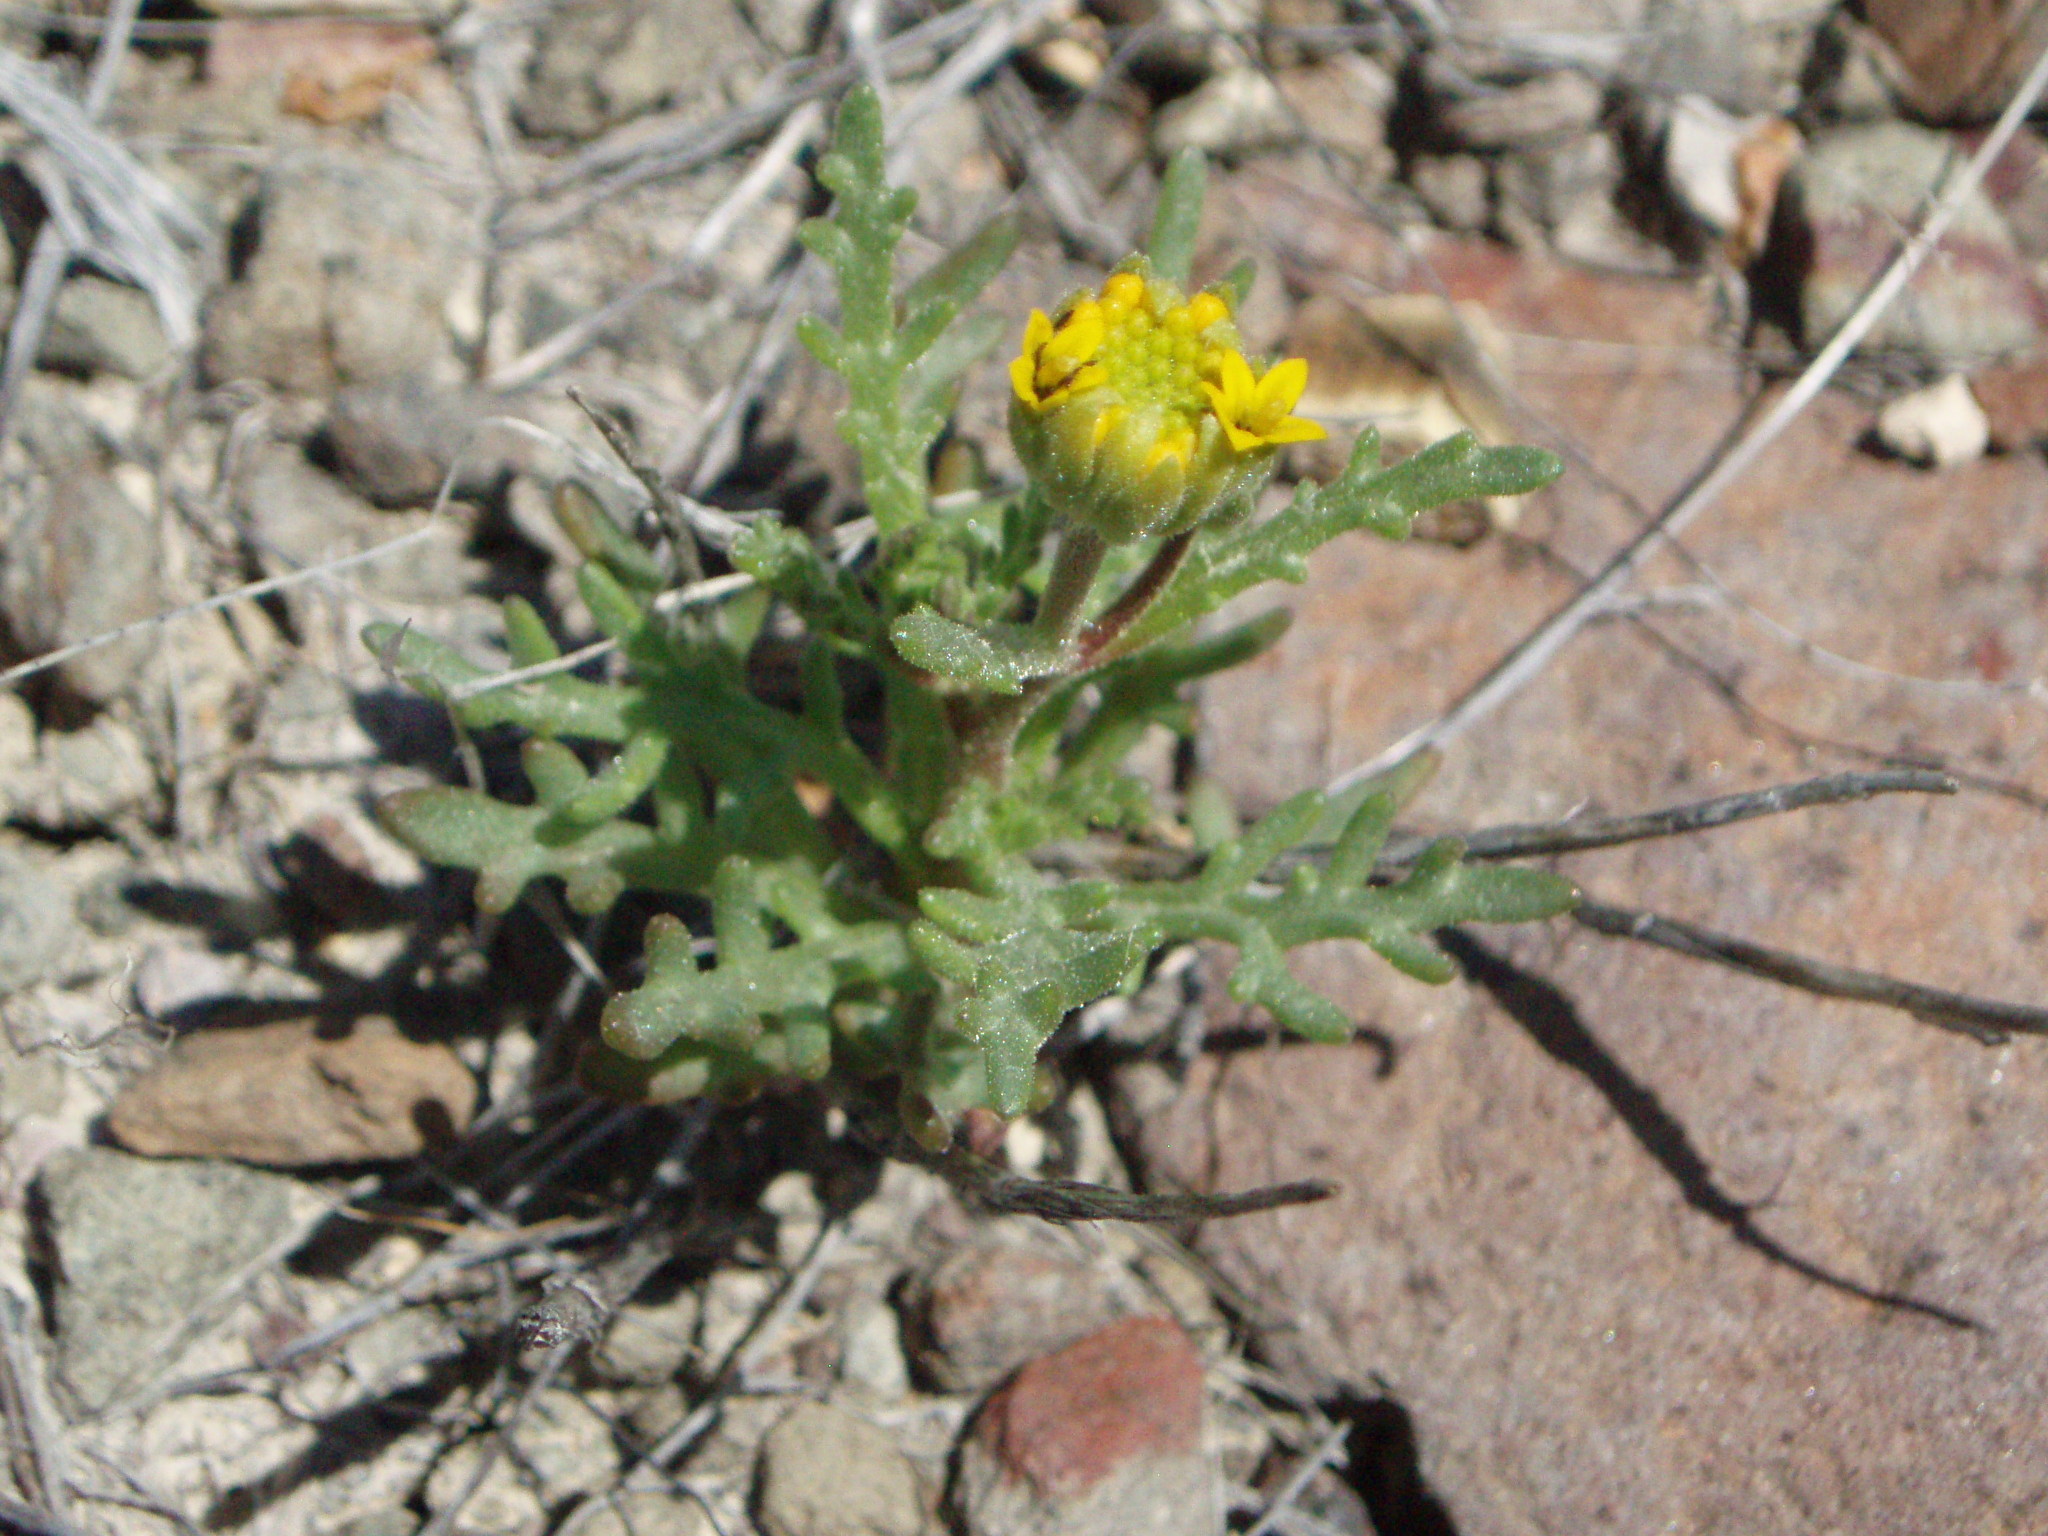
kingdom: Plantae
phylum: Tracheophyta
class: Magnoliopsida
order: Asterales
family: Asteraceae
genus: Chaenactis
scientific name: Chaenactis nevii
